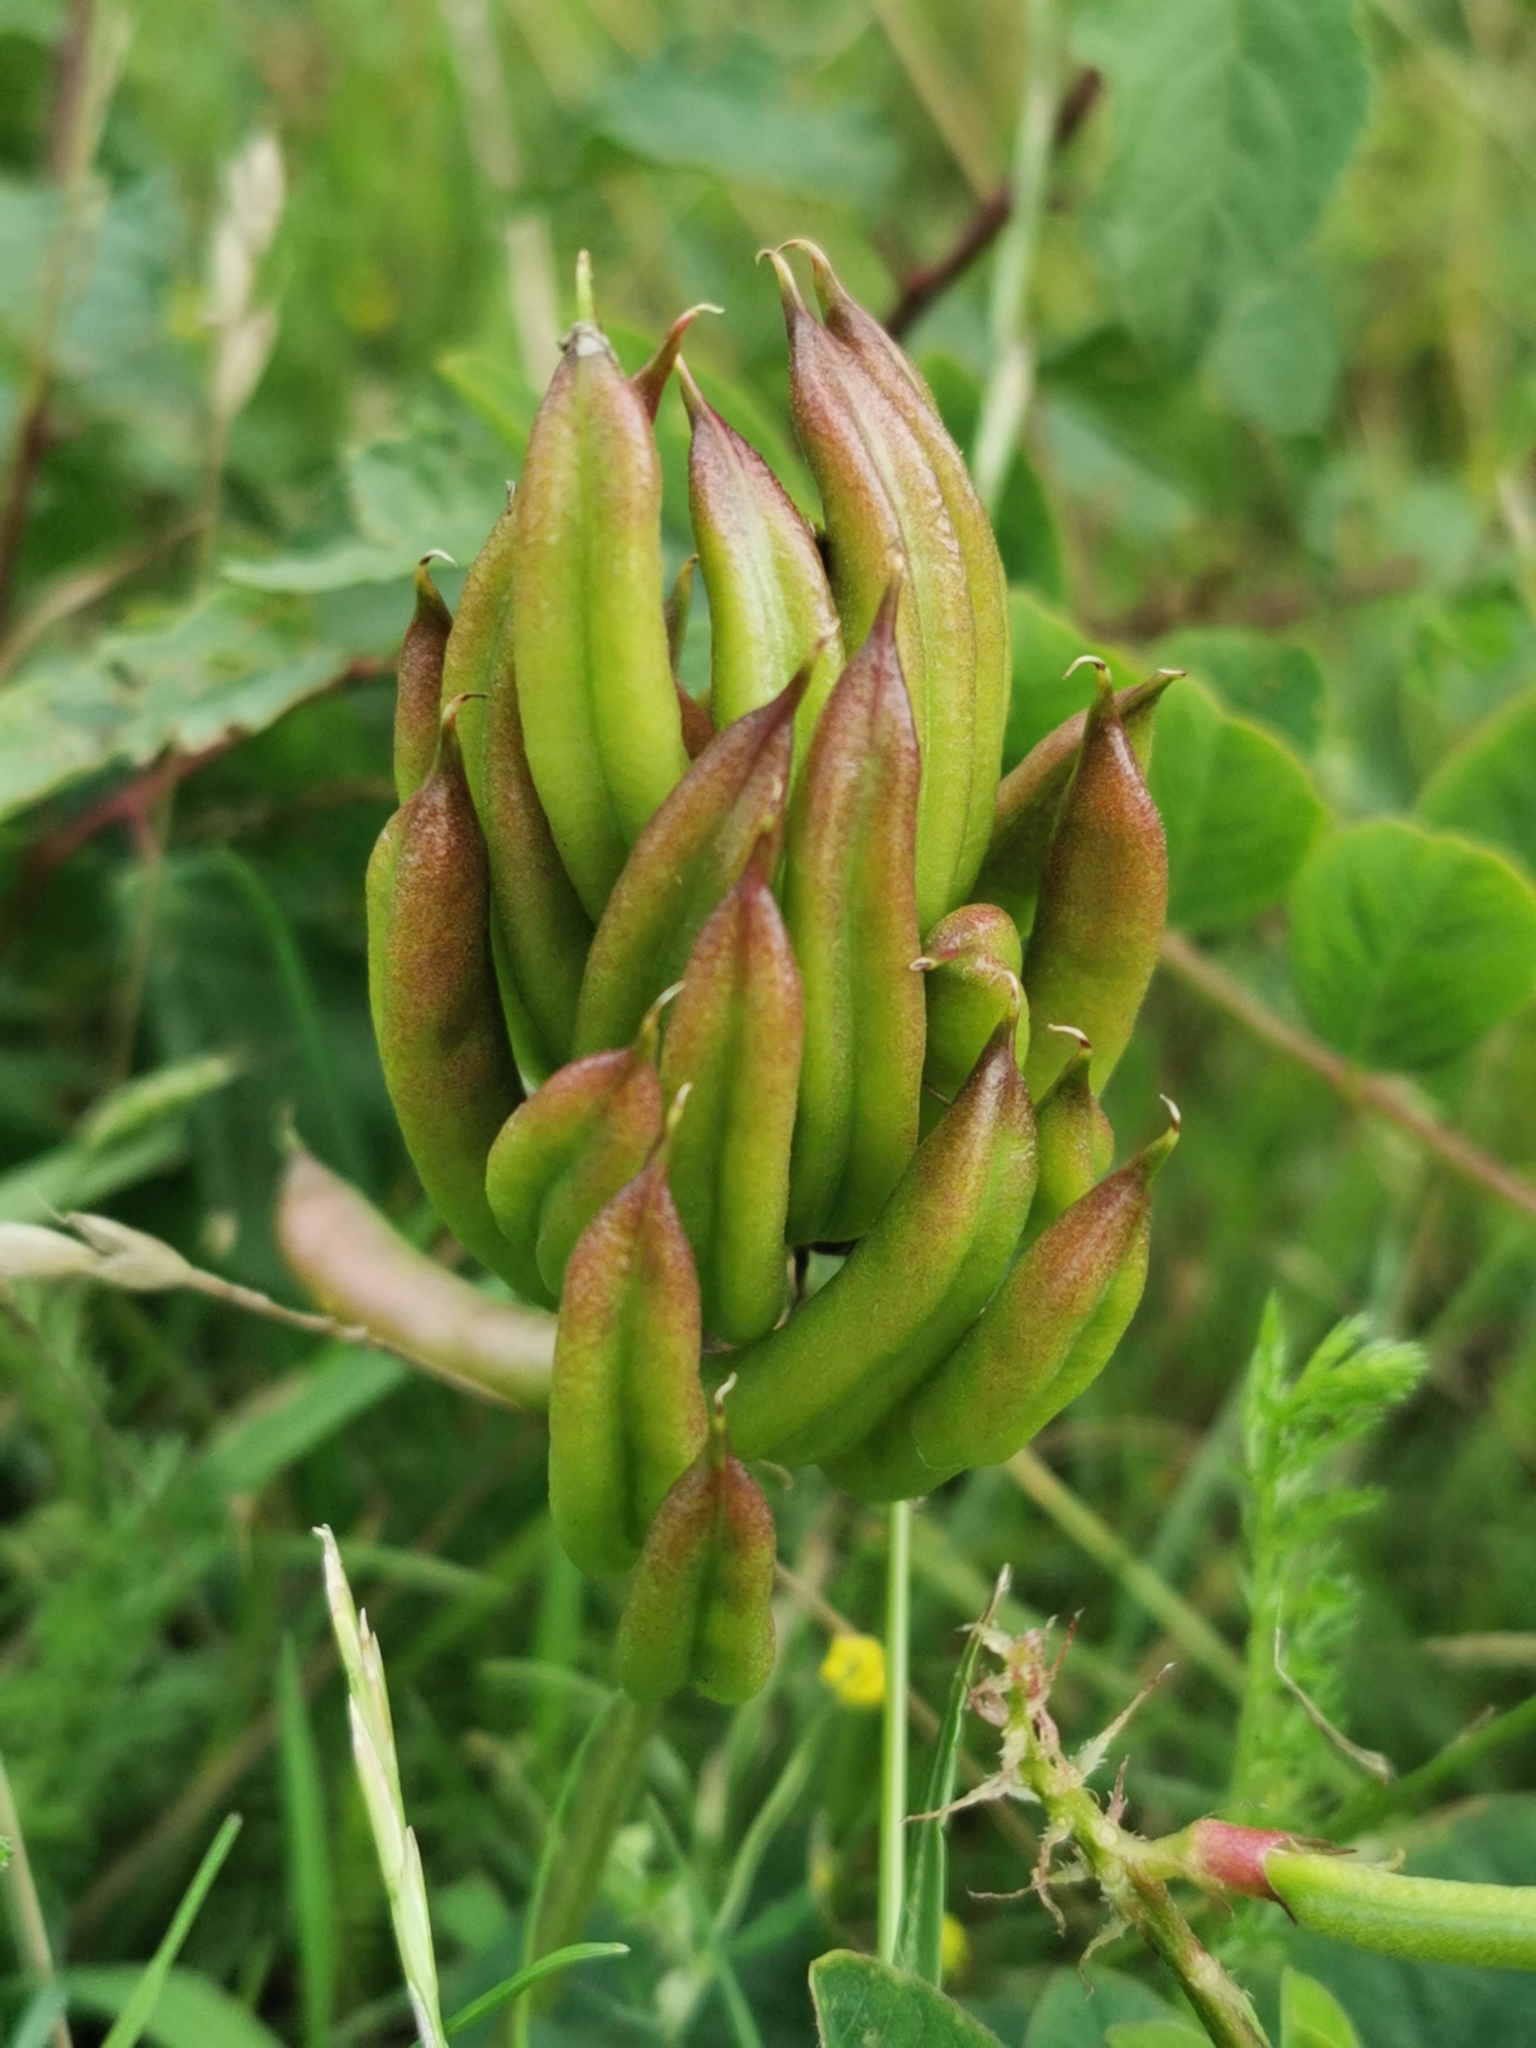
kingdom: Plantae
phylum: Tracheophyta
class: Magnoliopsida
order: Fabales
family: Fabaceae
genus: Astragalus
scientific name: Astragalus glycyphyllos
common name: Wild liquorice
